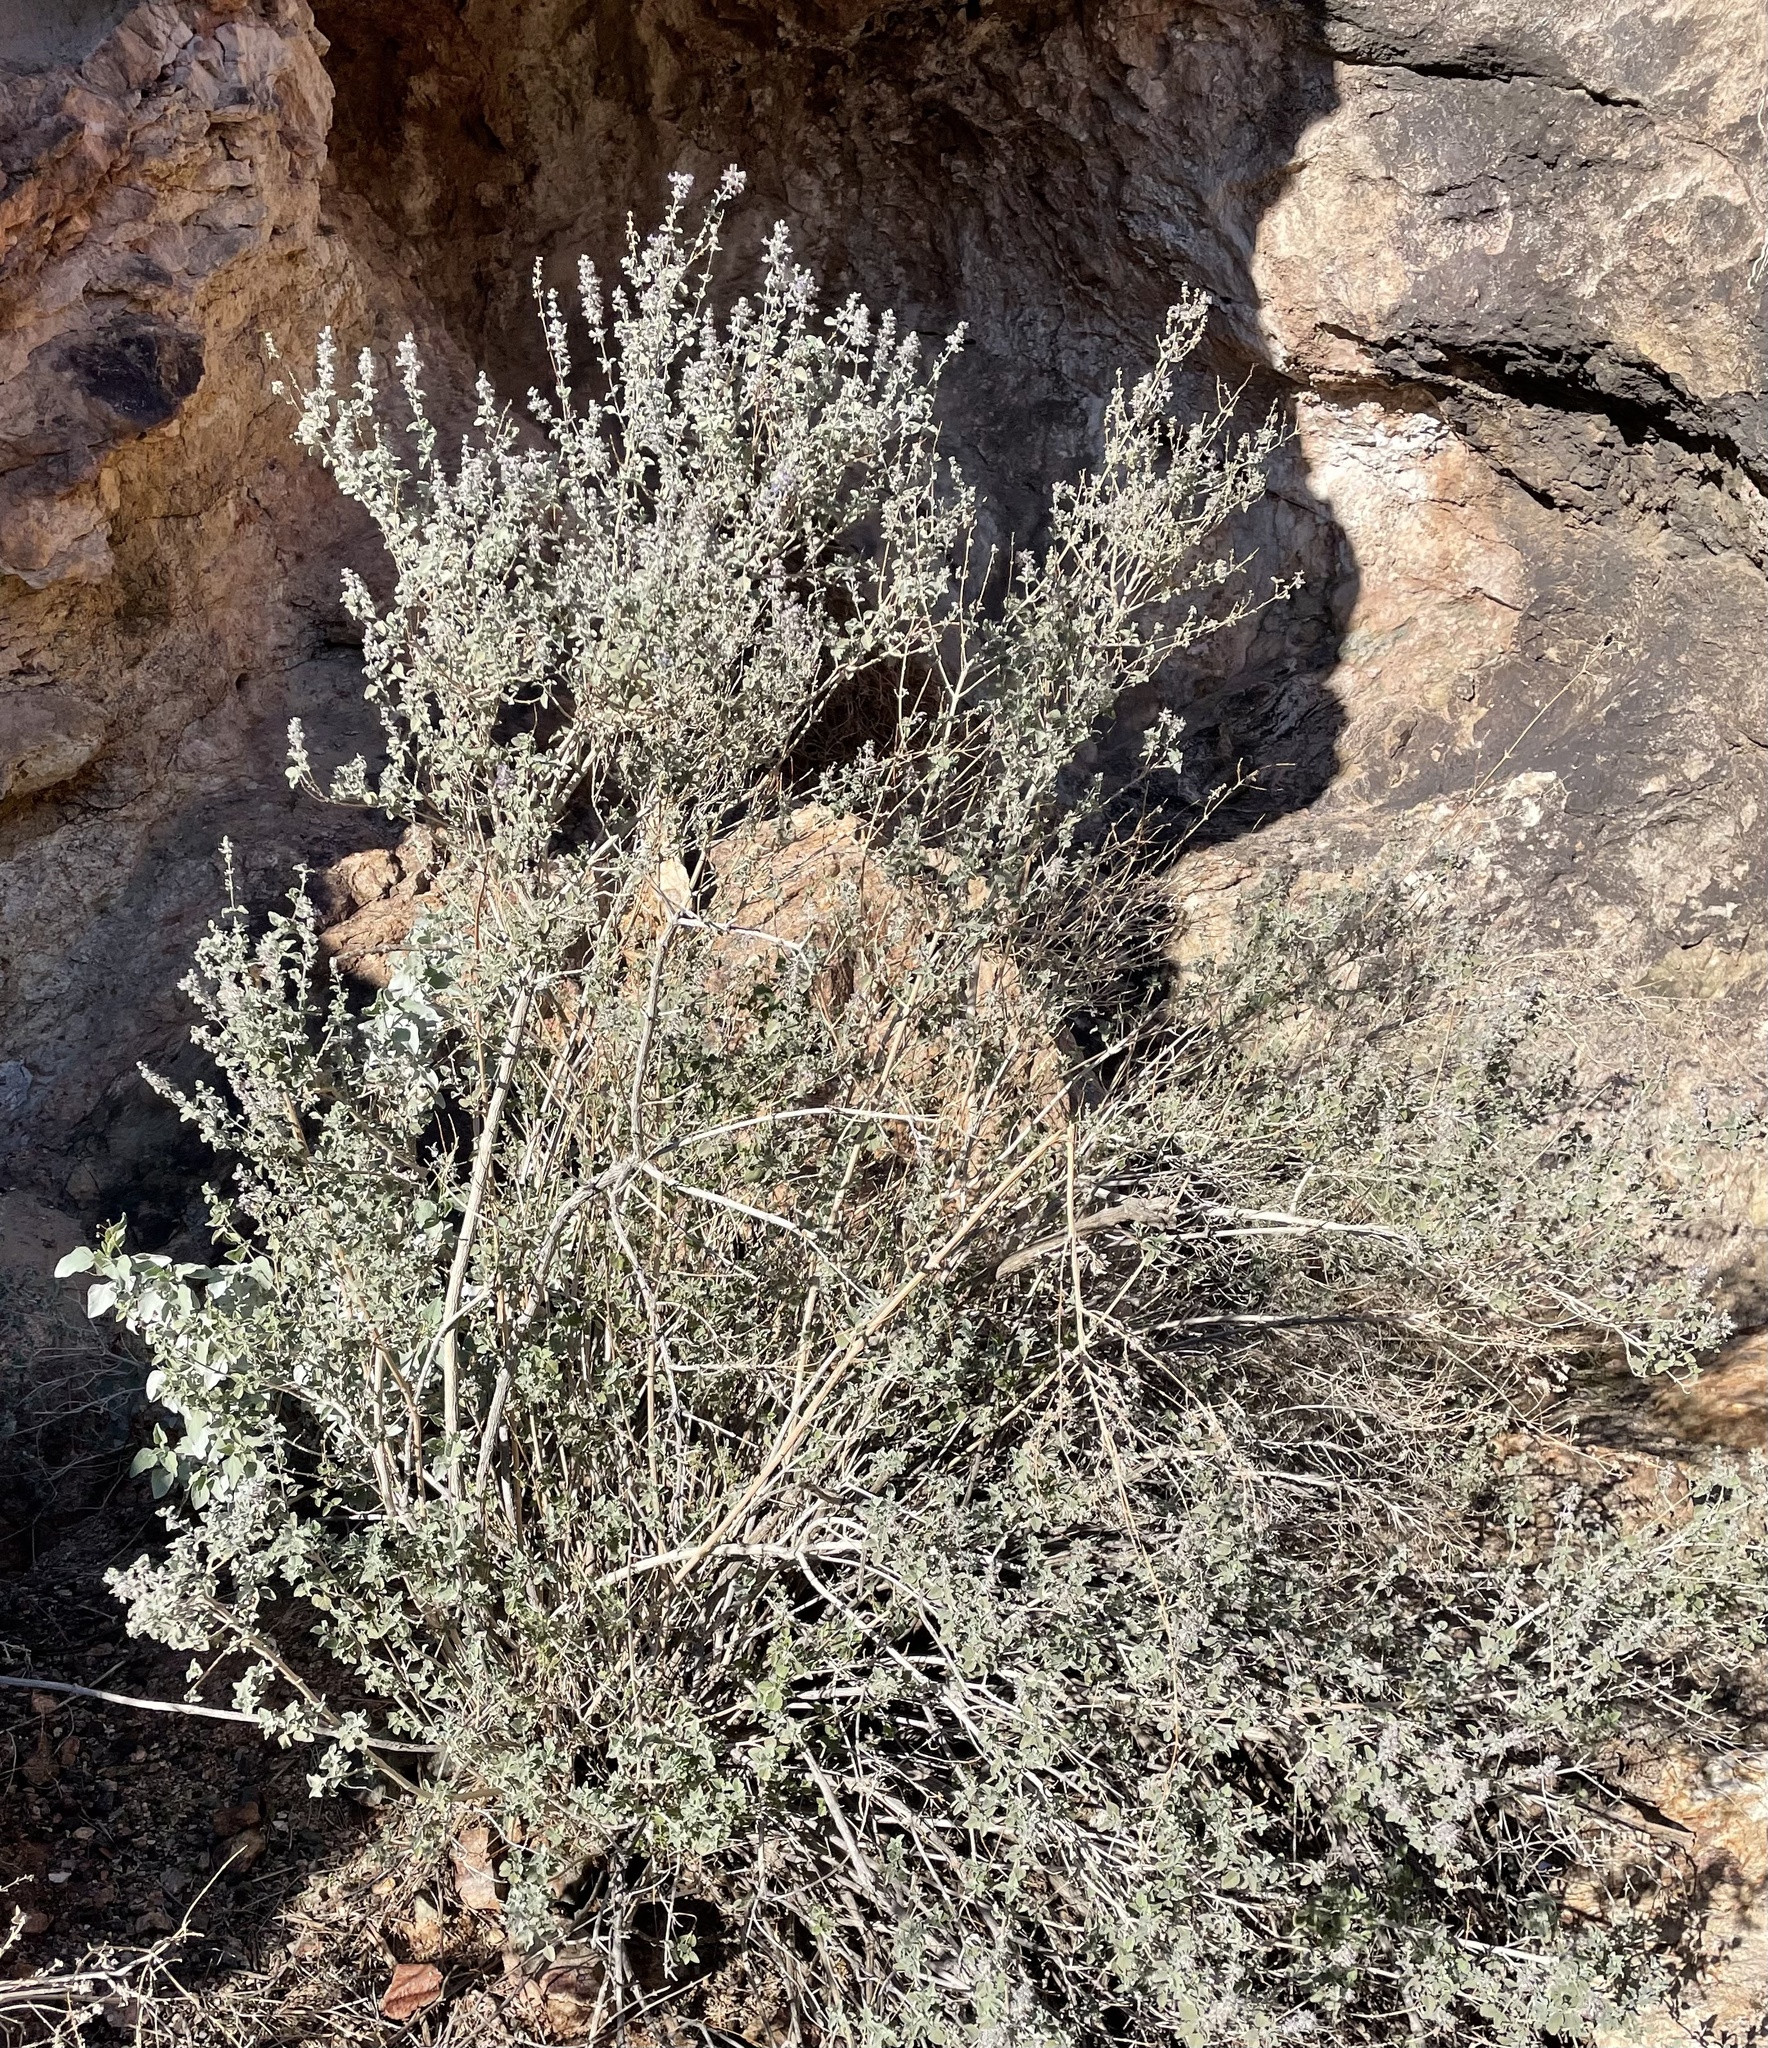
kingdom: Plantae
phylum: Tracheophyta
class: Magnoliopsida
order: Lamiales
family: Lamiaceae
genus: Condea
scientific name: Condea emoryi
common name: Chia
